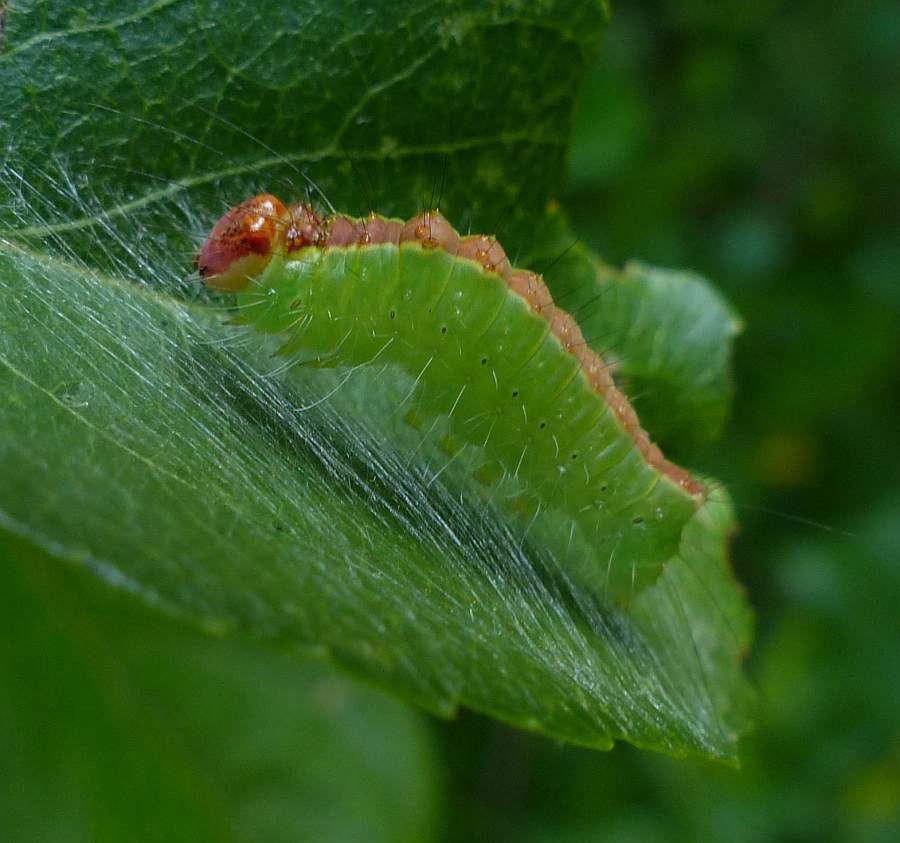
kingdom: Animalia
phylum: Arthropoda
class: Insecta
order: Lepidoptera
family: Noctuidae
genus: Acronicta
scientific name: Acronicta superans
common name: Splendid dagger
